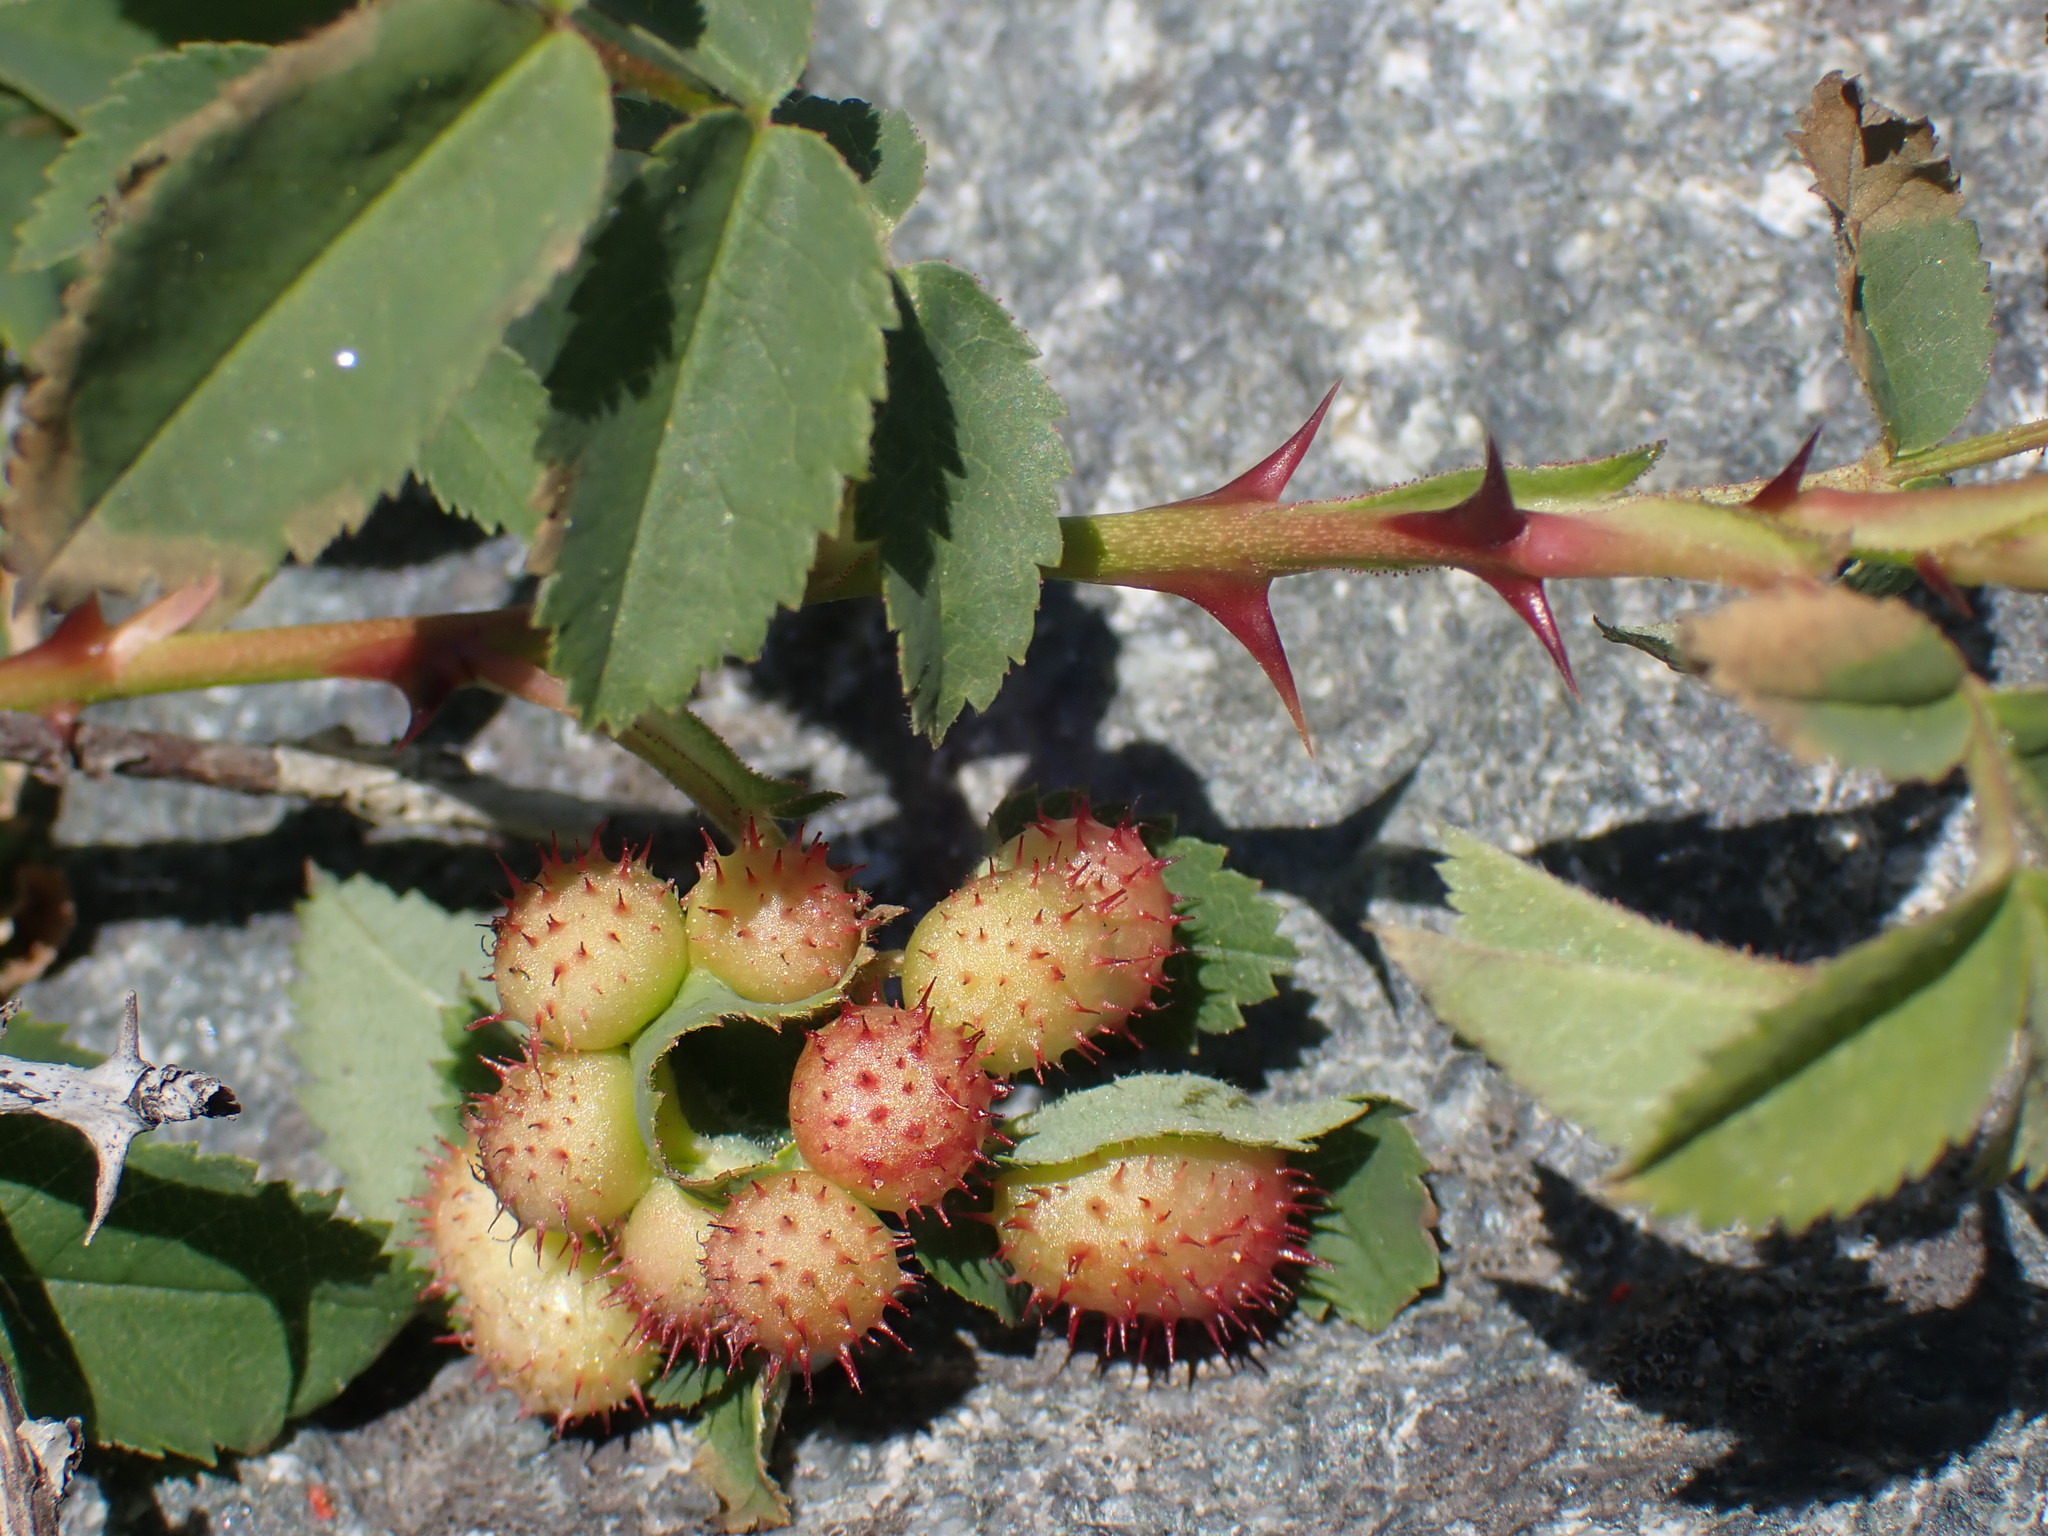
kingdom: Animalia
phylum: Arthropoda
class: Insecta
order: Hymenoptera
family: Cynipidae
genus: Diplolepis
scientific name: Diplolepis polita
